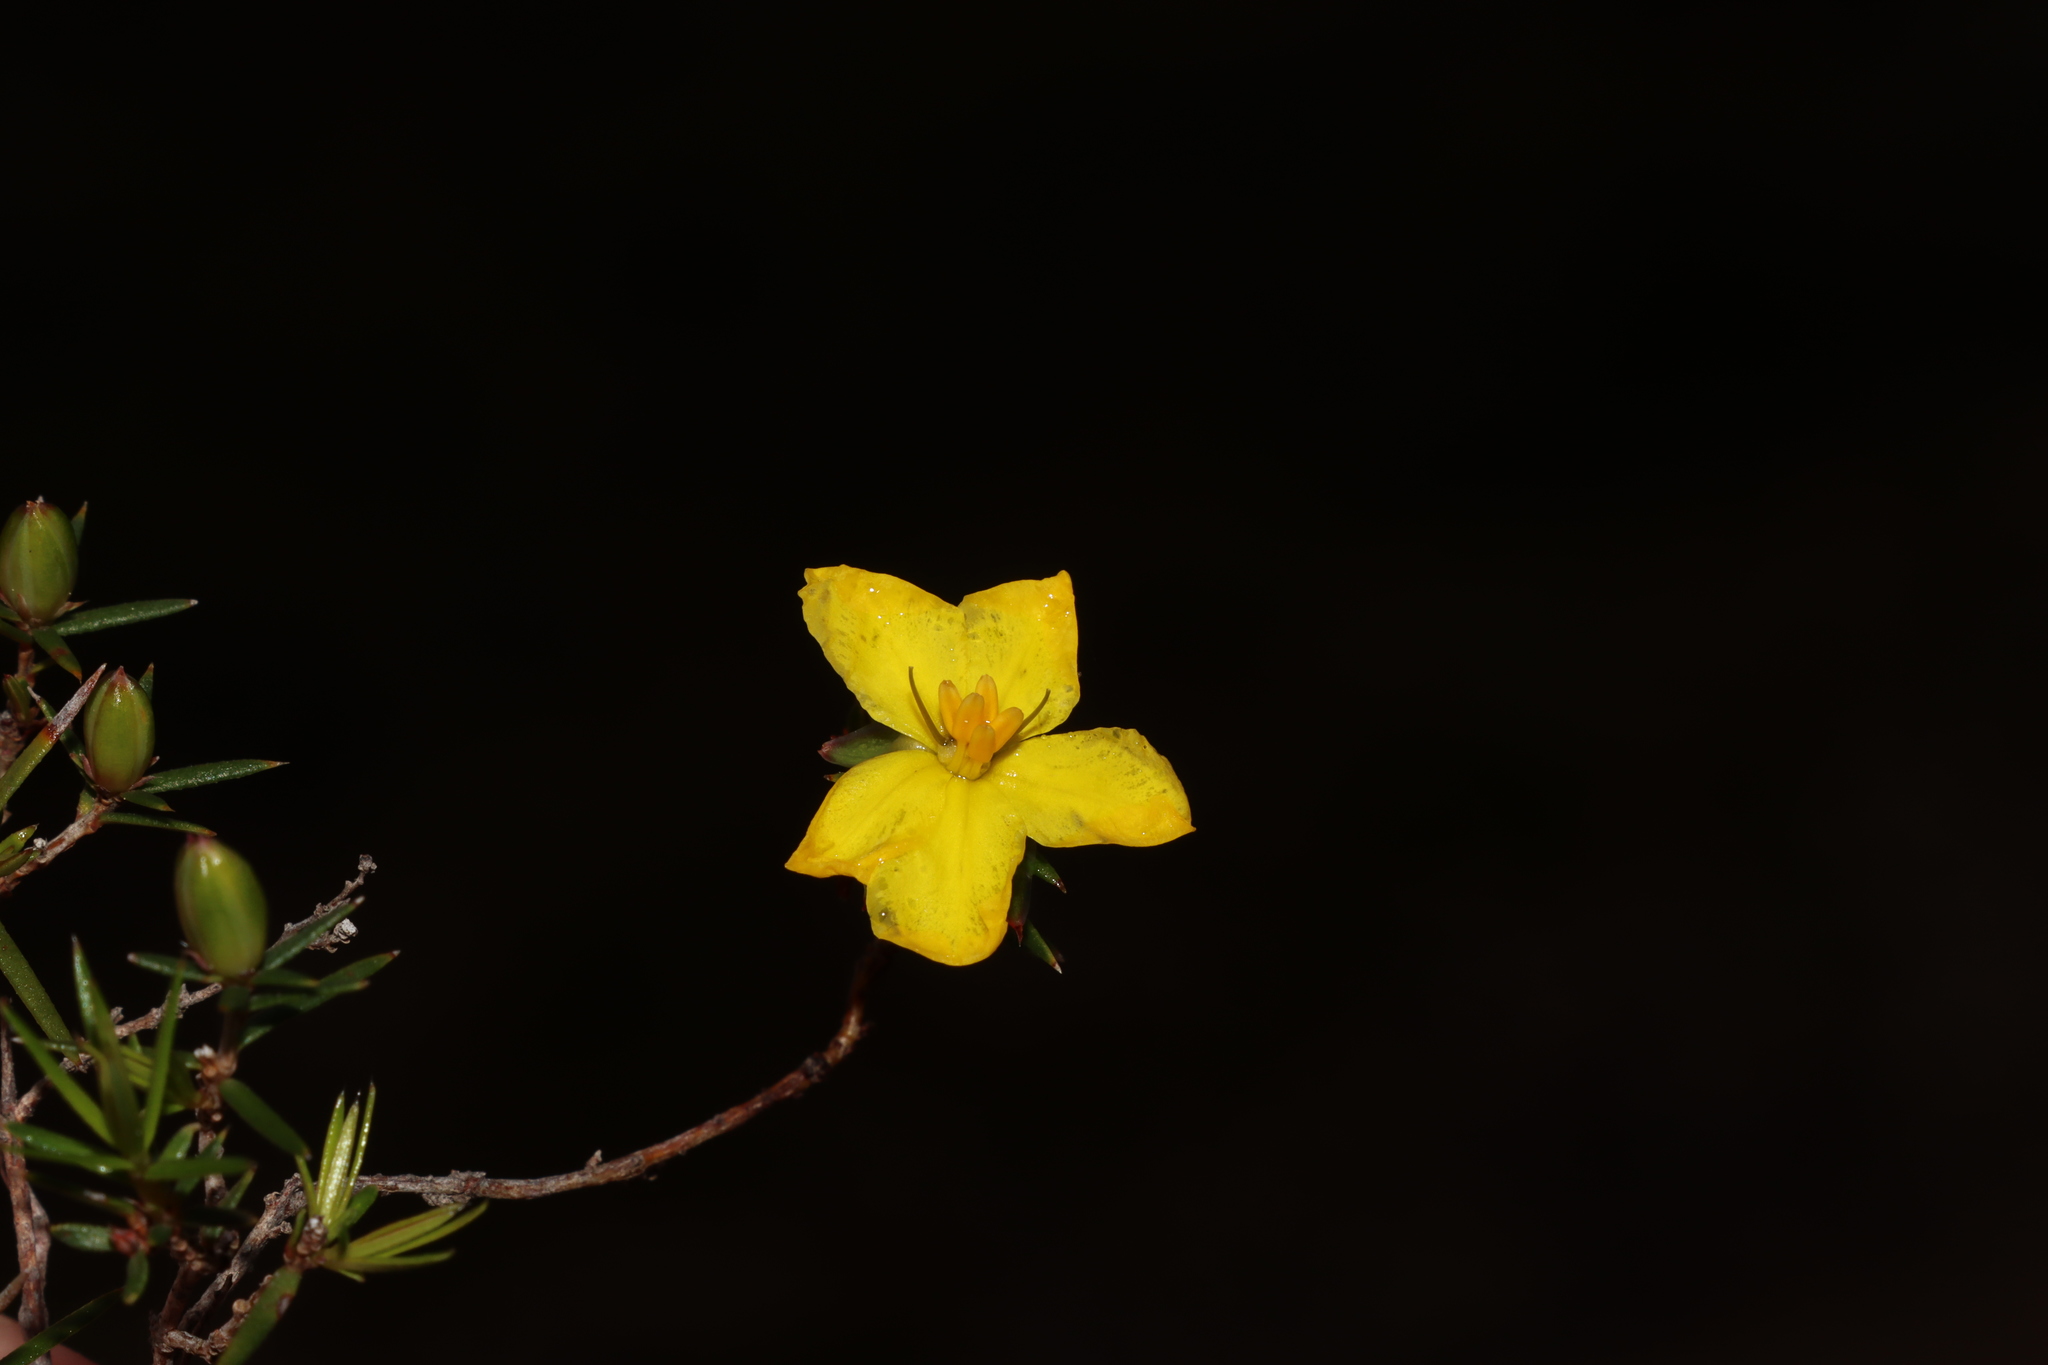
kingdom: Plantae
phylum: Tracheophyta
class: Magnoliopsida
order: Dilleniales
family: Dilleniaceae
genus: Hibbertia
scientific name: Hibbertia exutiacies
